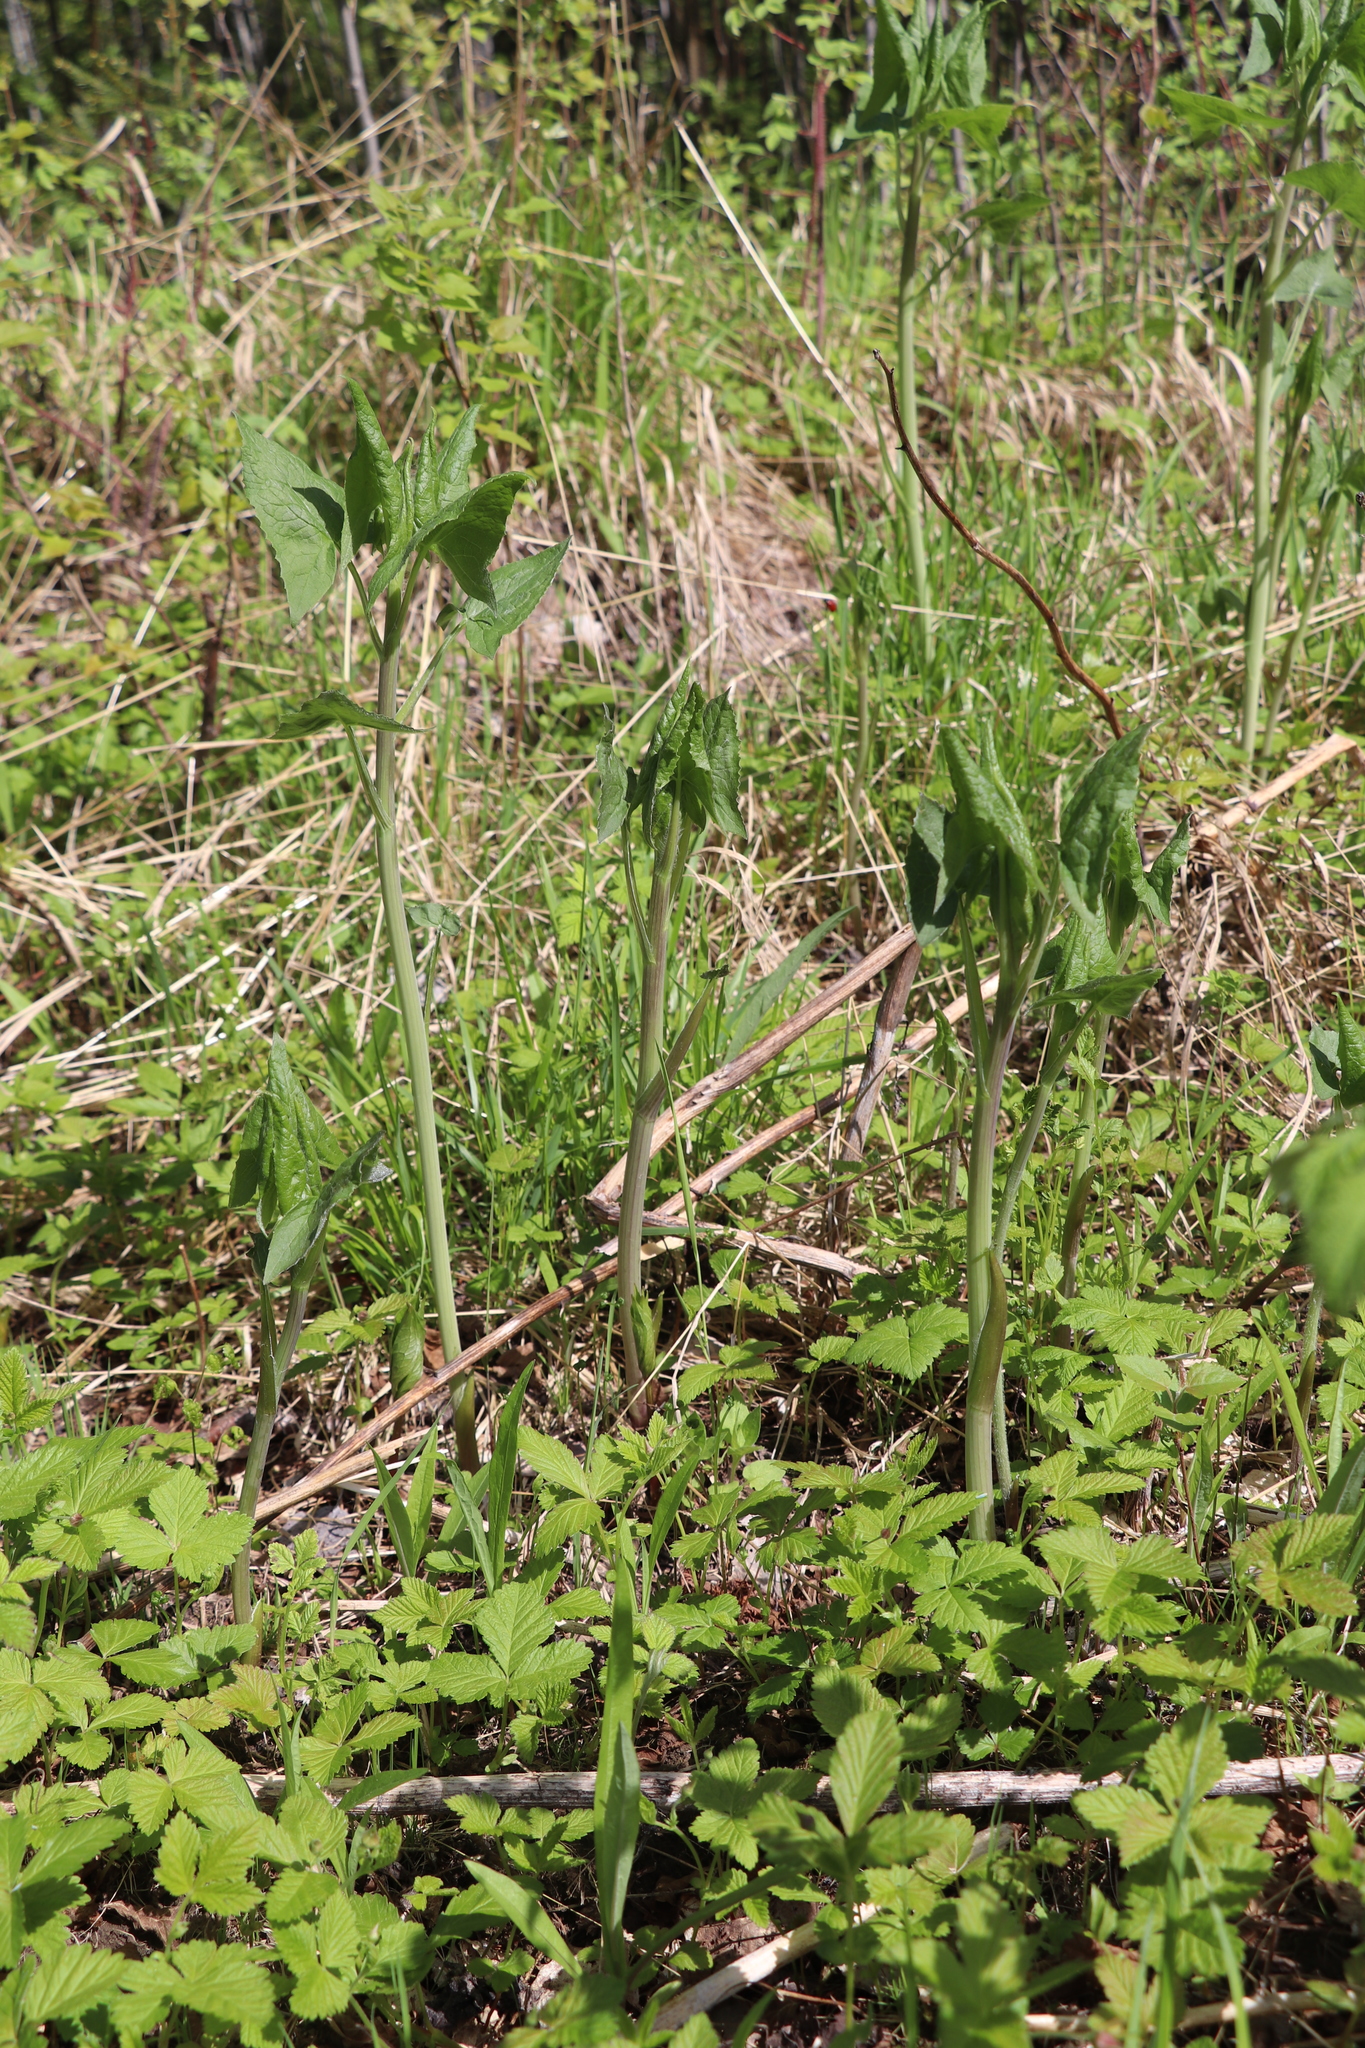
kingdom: Plantae
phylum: Tracheophyta
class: Magnoliopsida
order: Asterales
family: Asteraceae
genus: Parasenecio
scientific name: Parasenecio hastatus
